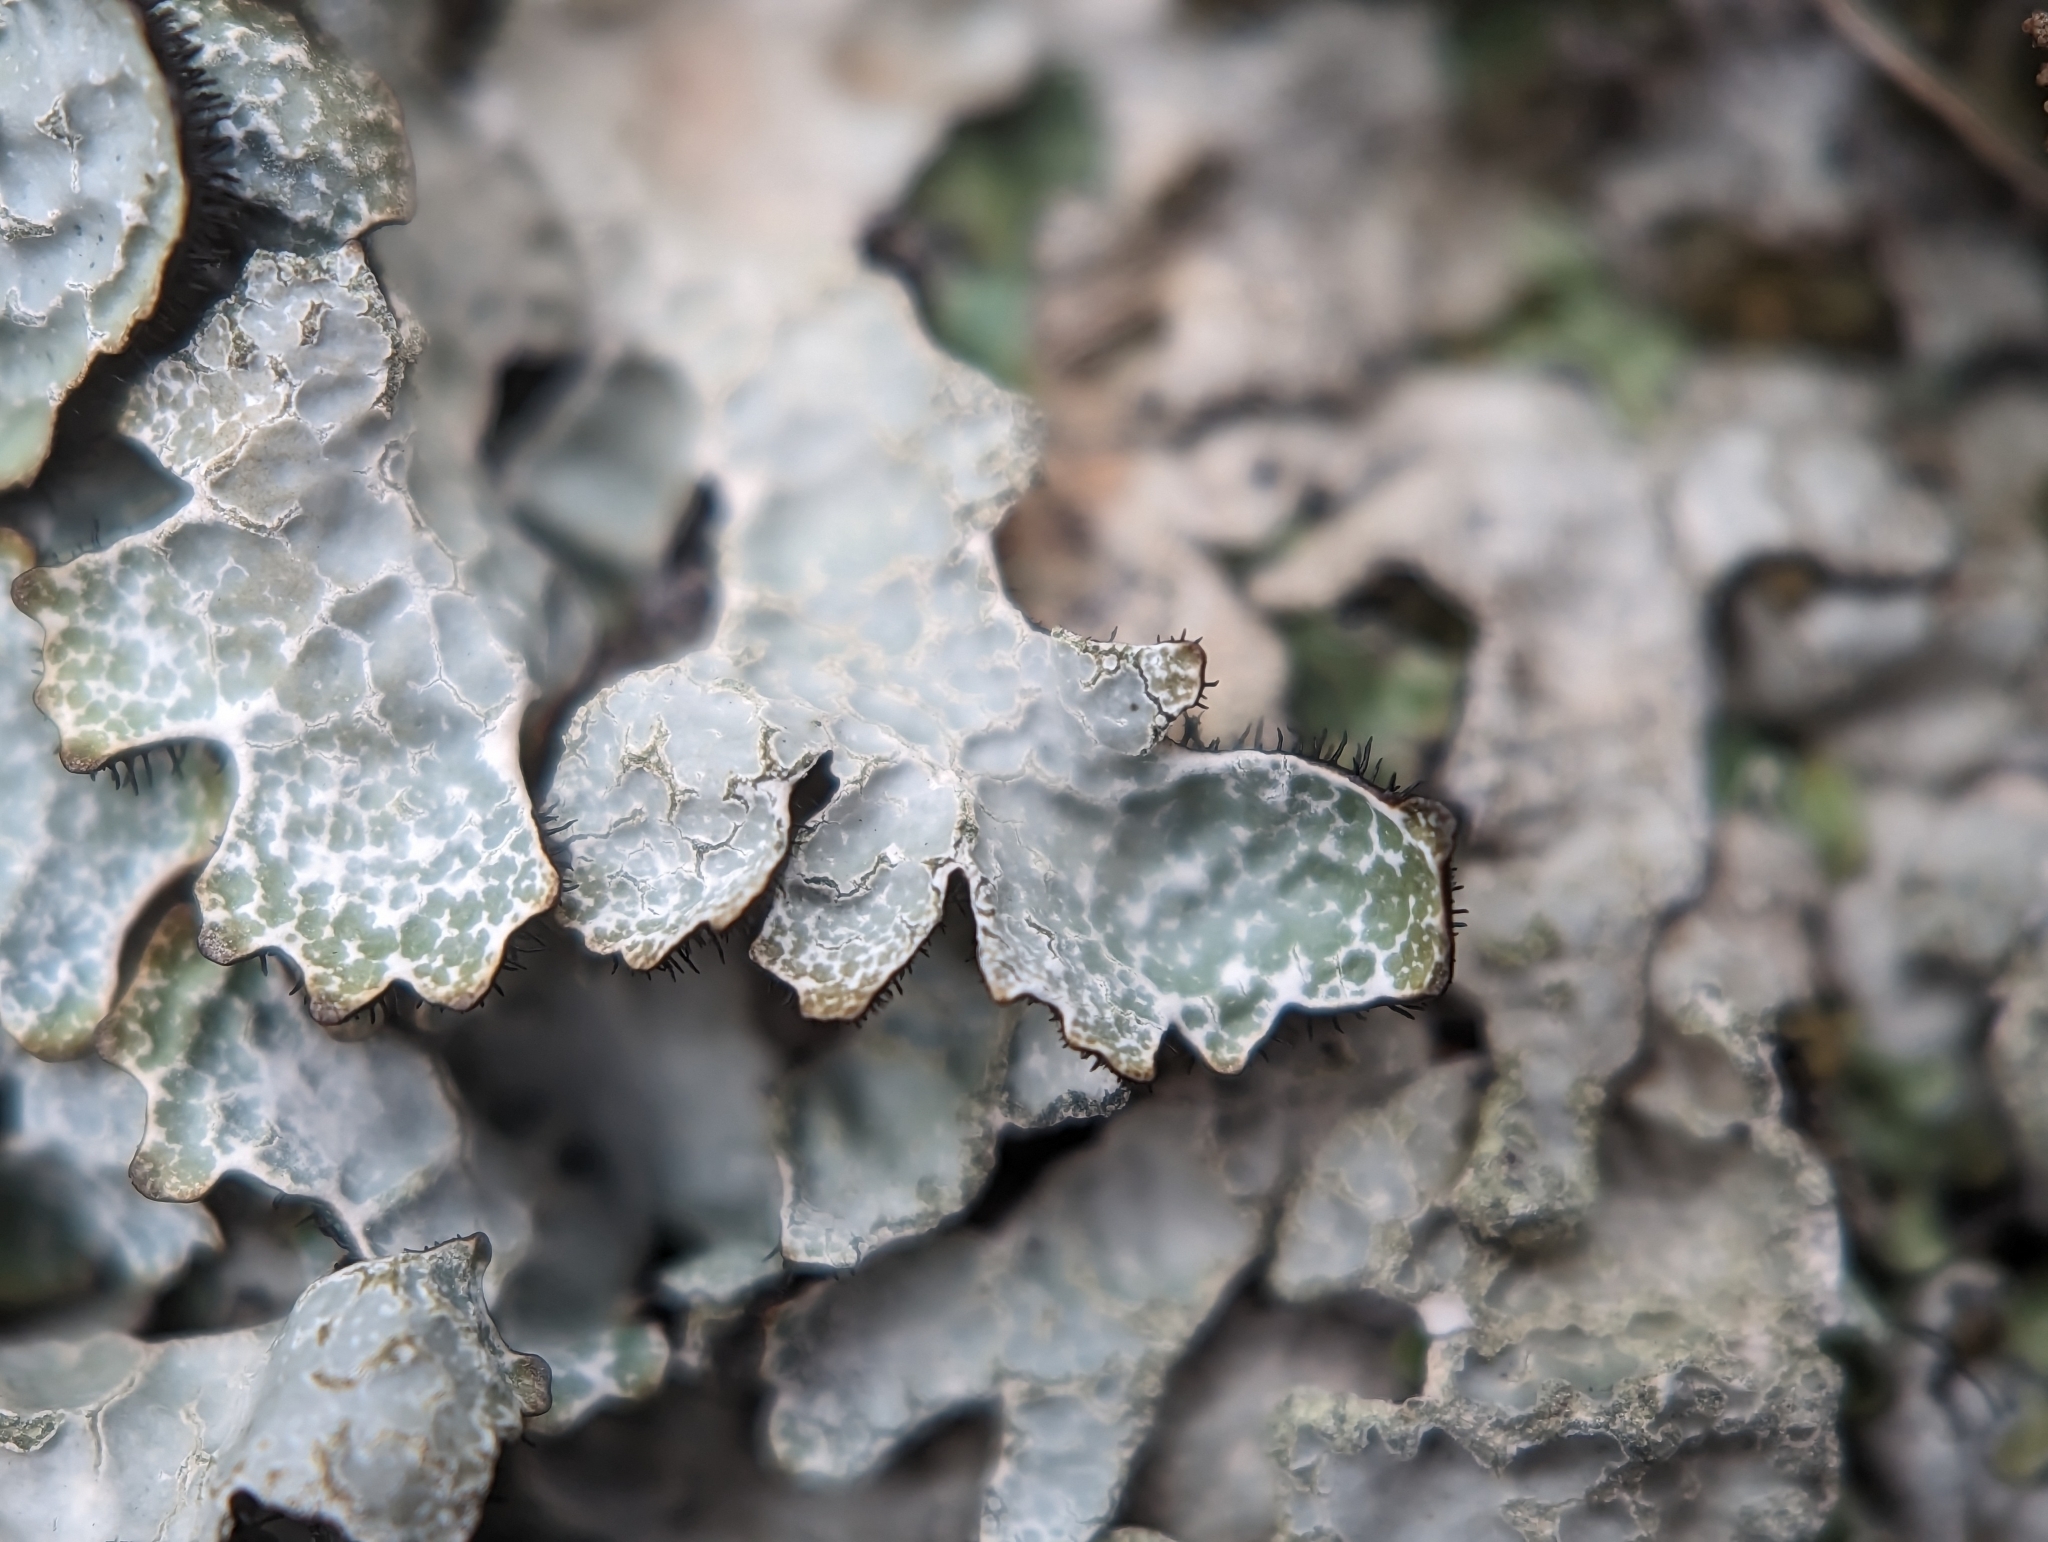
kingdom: Fungi
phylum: Ascomycota
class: Lecanoromycetes
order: Lecanorales
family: Parmeliaceae
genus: Parmelia
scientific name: Parmelia sulcata
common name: Netted shield lichen
